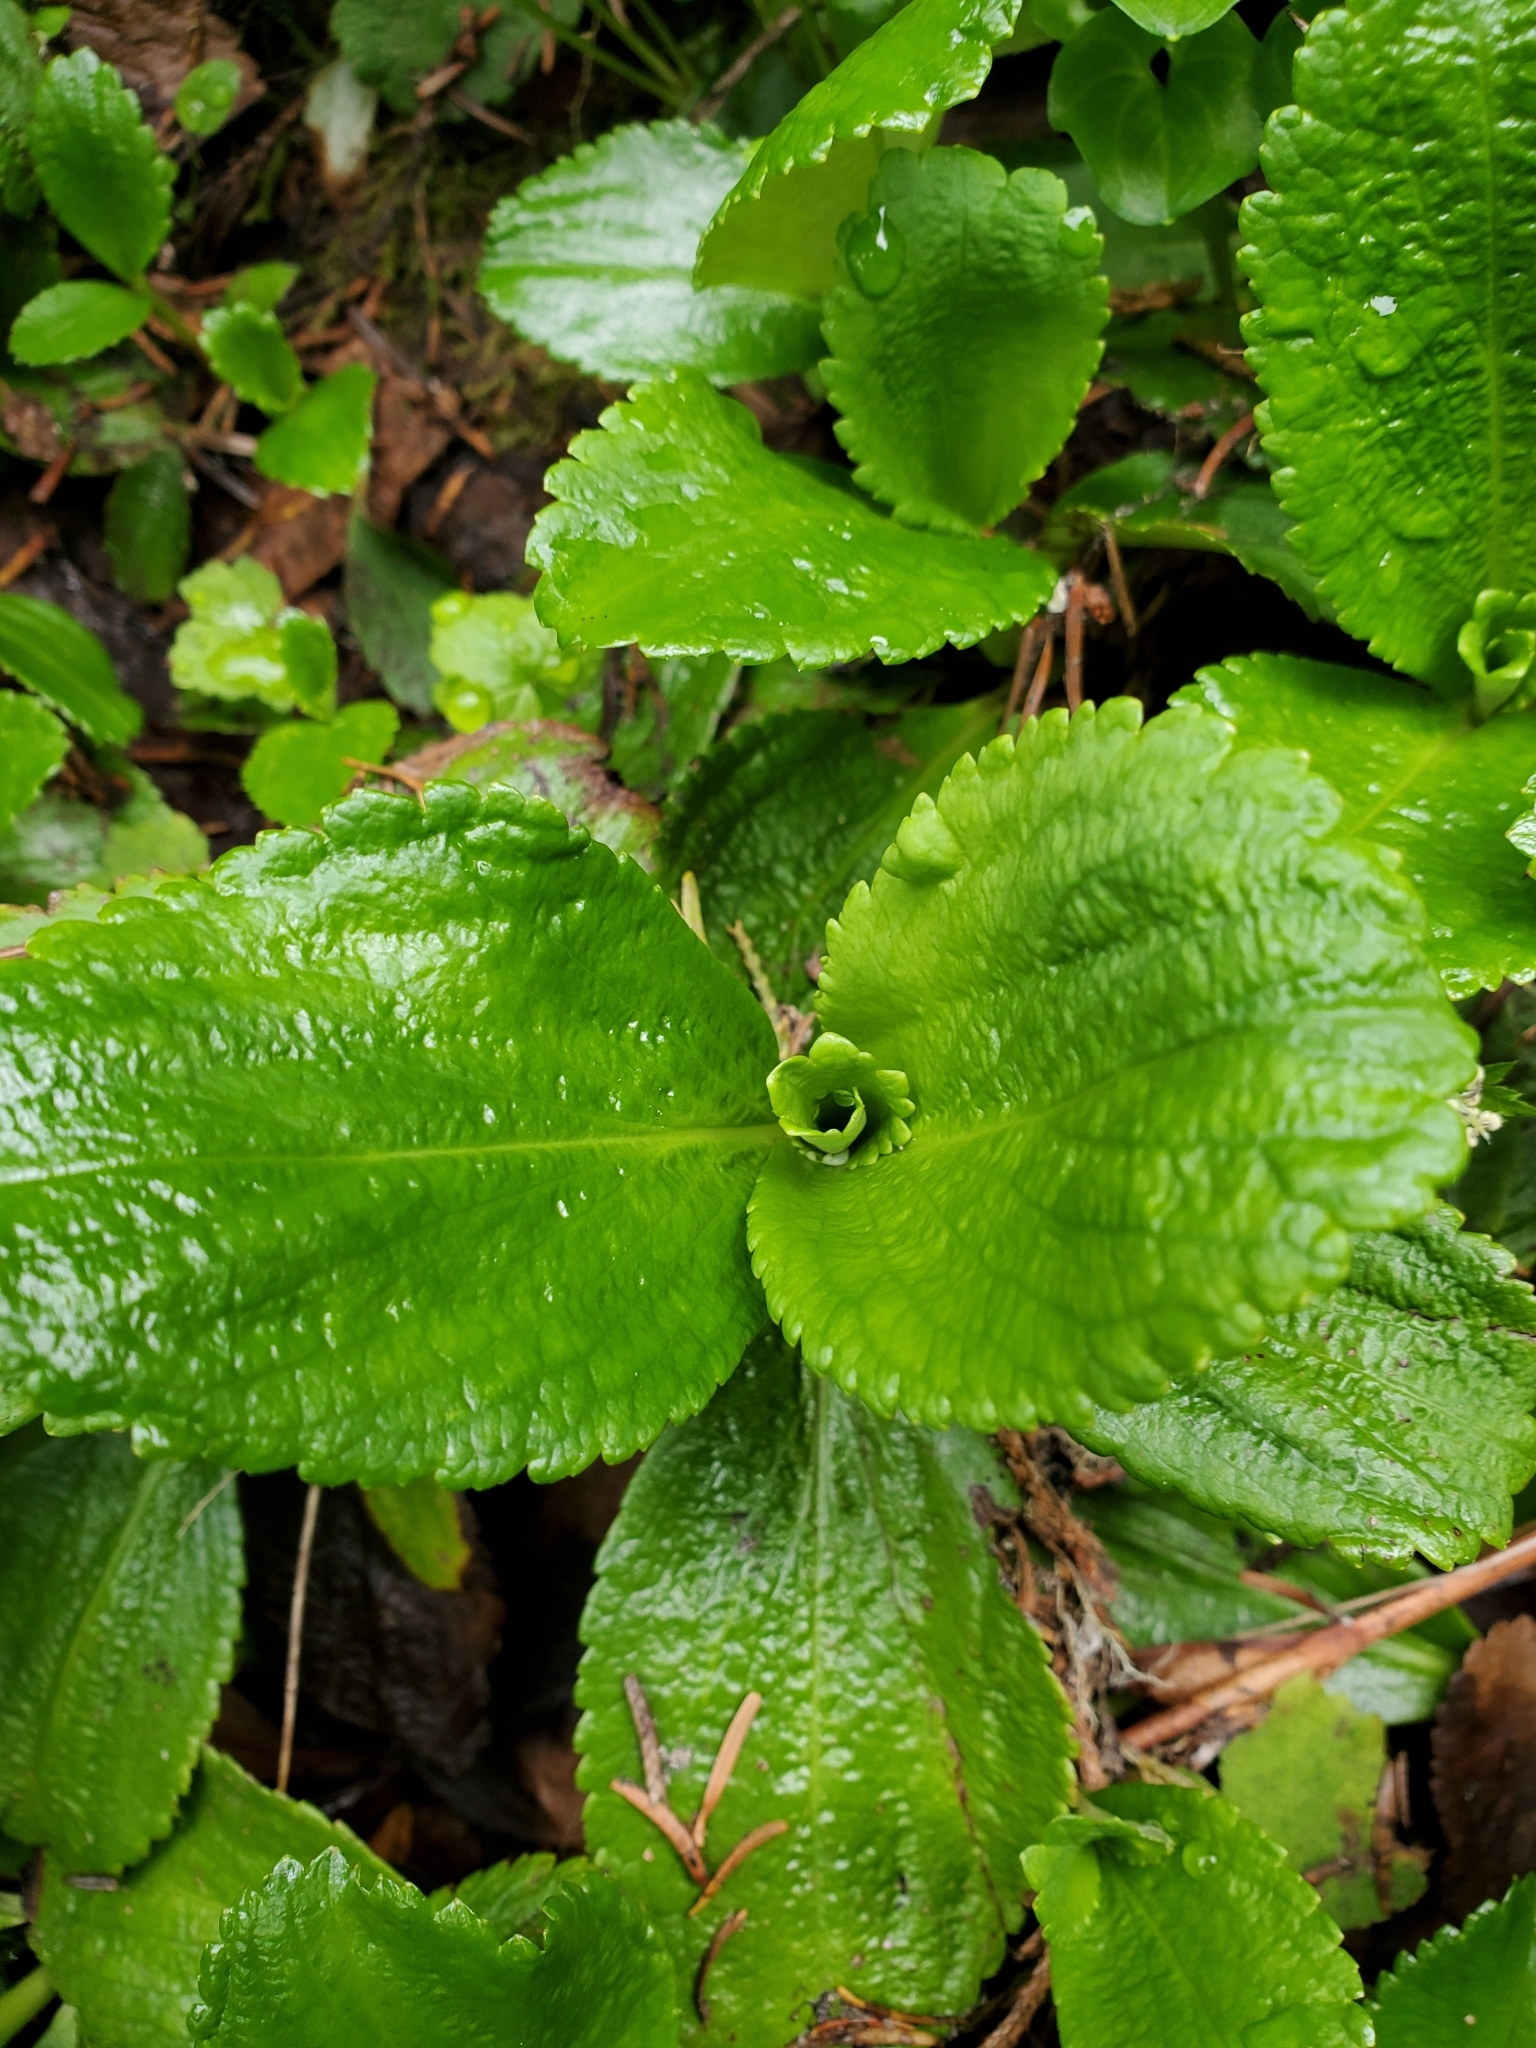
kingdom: Plantae
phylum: Tracheophyta
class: Magnoliopsida
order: Saxifragales
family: Saxifragaceae
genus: Leptarrhena
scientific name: Leptarrhena pyrolifolia
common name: Leatherleaf-saxifrage
